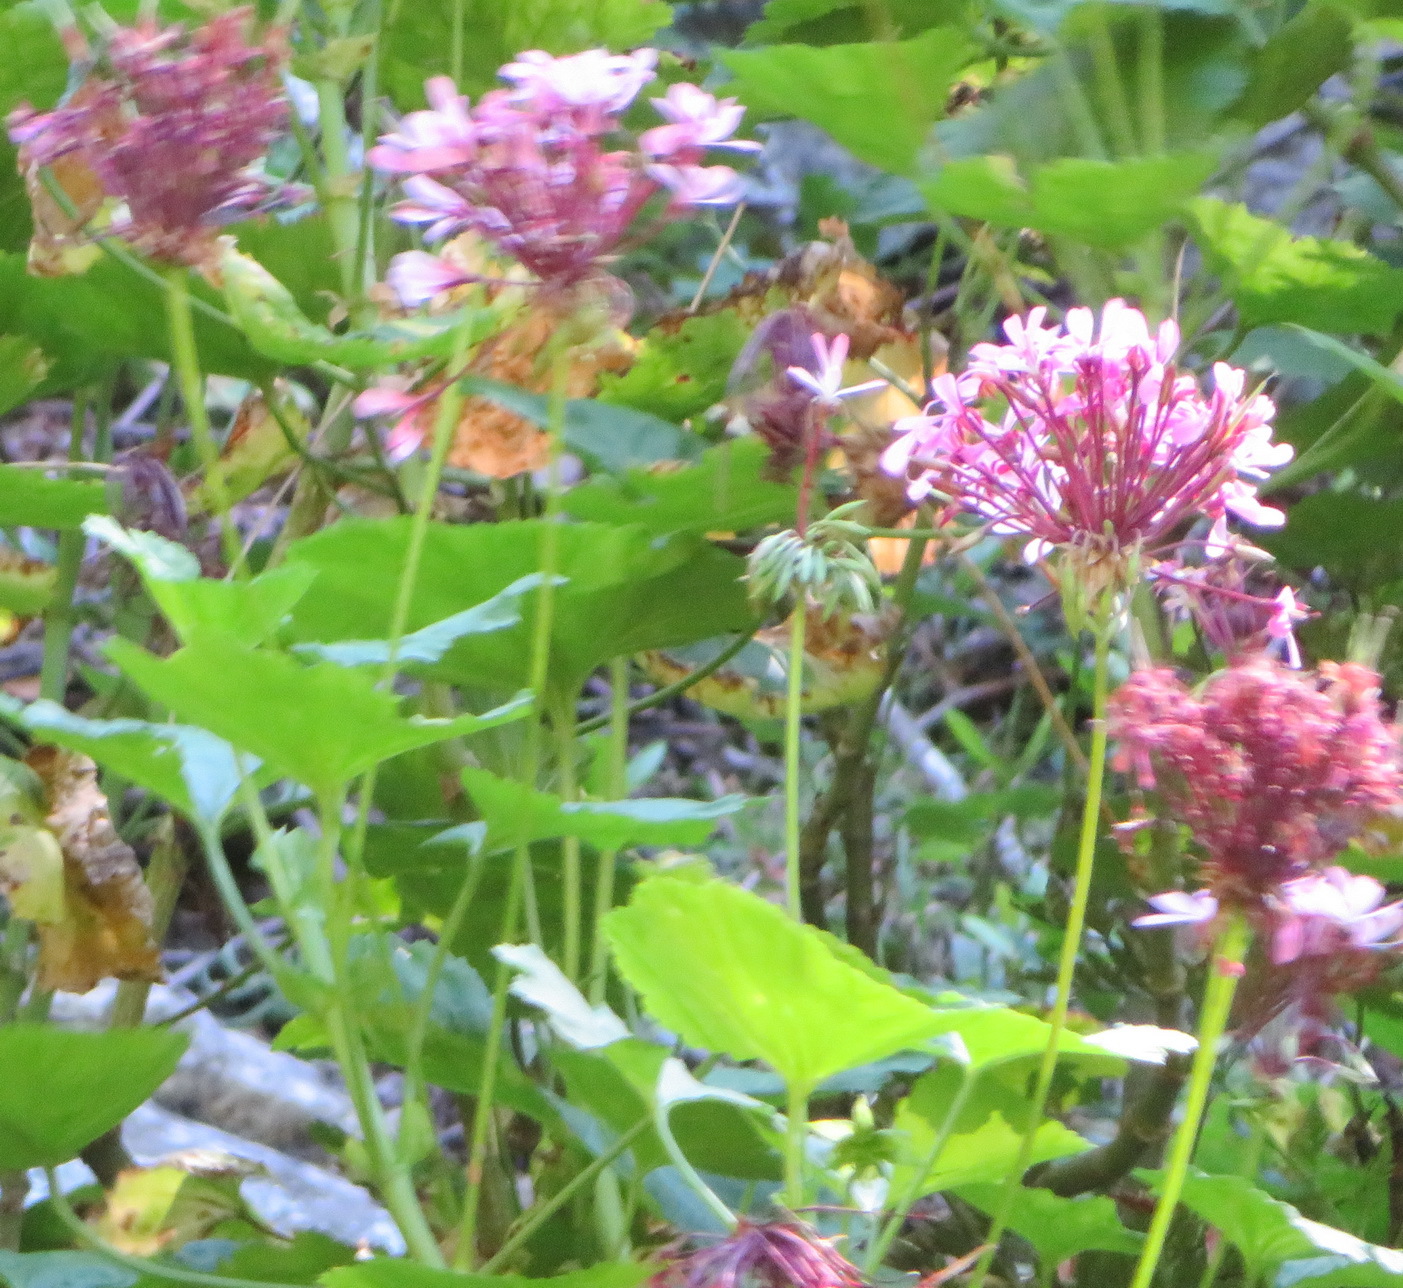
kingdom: Plantae
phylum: Tracheophyta
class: Magnoliopsida
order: Geraniales
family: Geraniaceae
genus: Pelargonium
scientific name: Pelargonium zonale
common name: Horseshoe geranium
